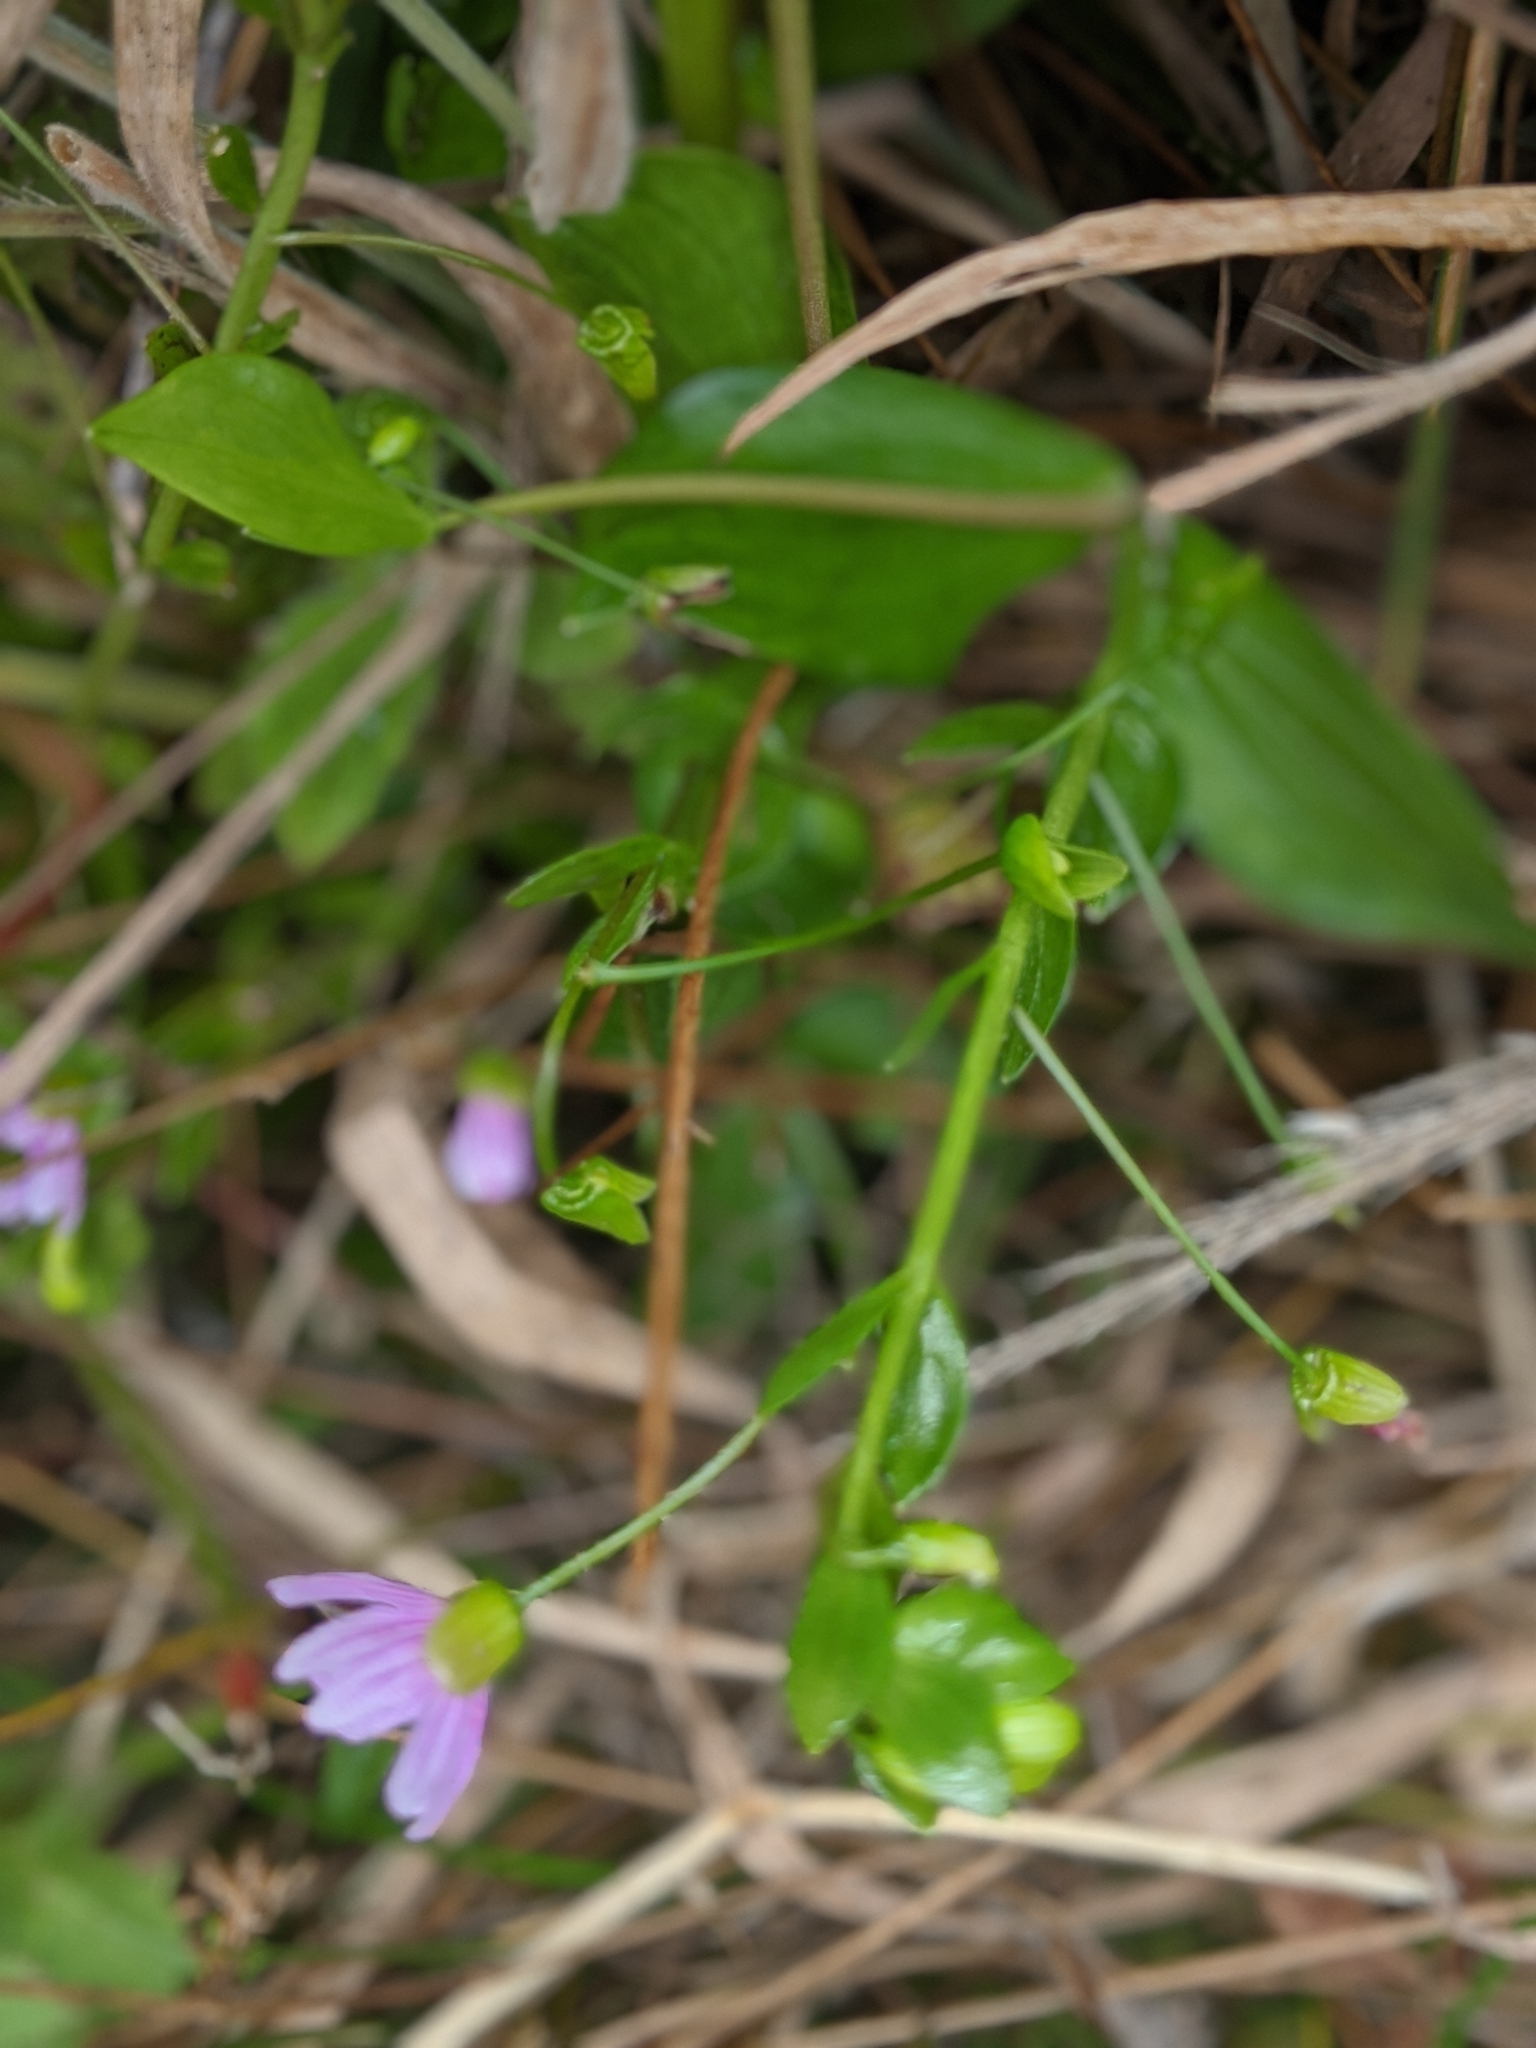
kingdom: Plantae
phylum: Tracheophyta
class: Magnoliopsida
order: Caryophyllales
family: Montiaceae
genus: Claytonia
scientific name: Claytonia sibirica
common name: Pink purslane
